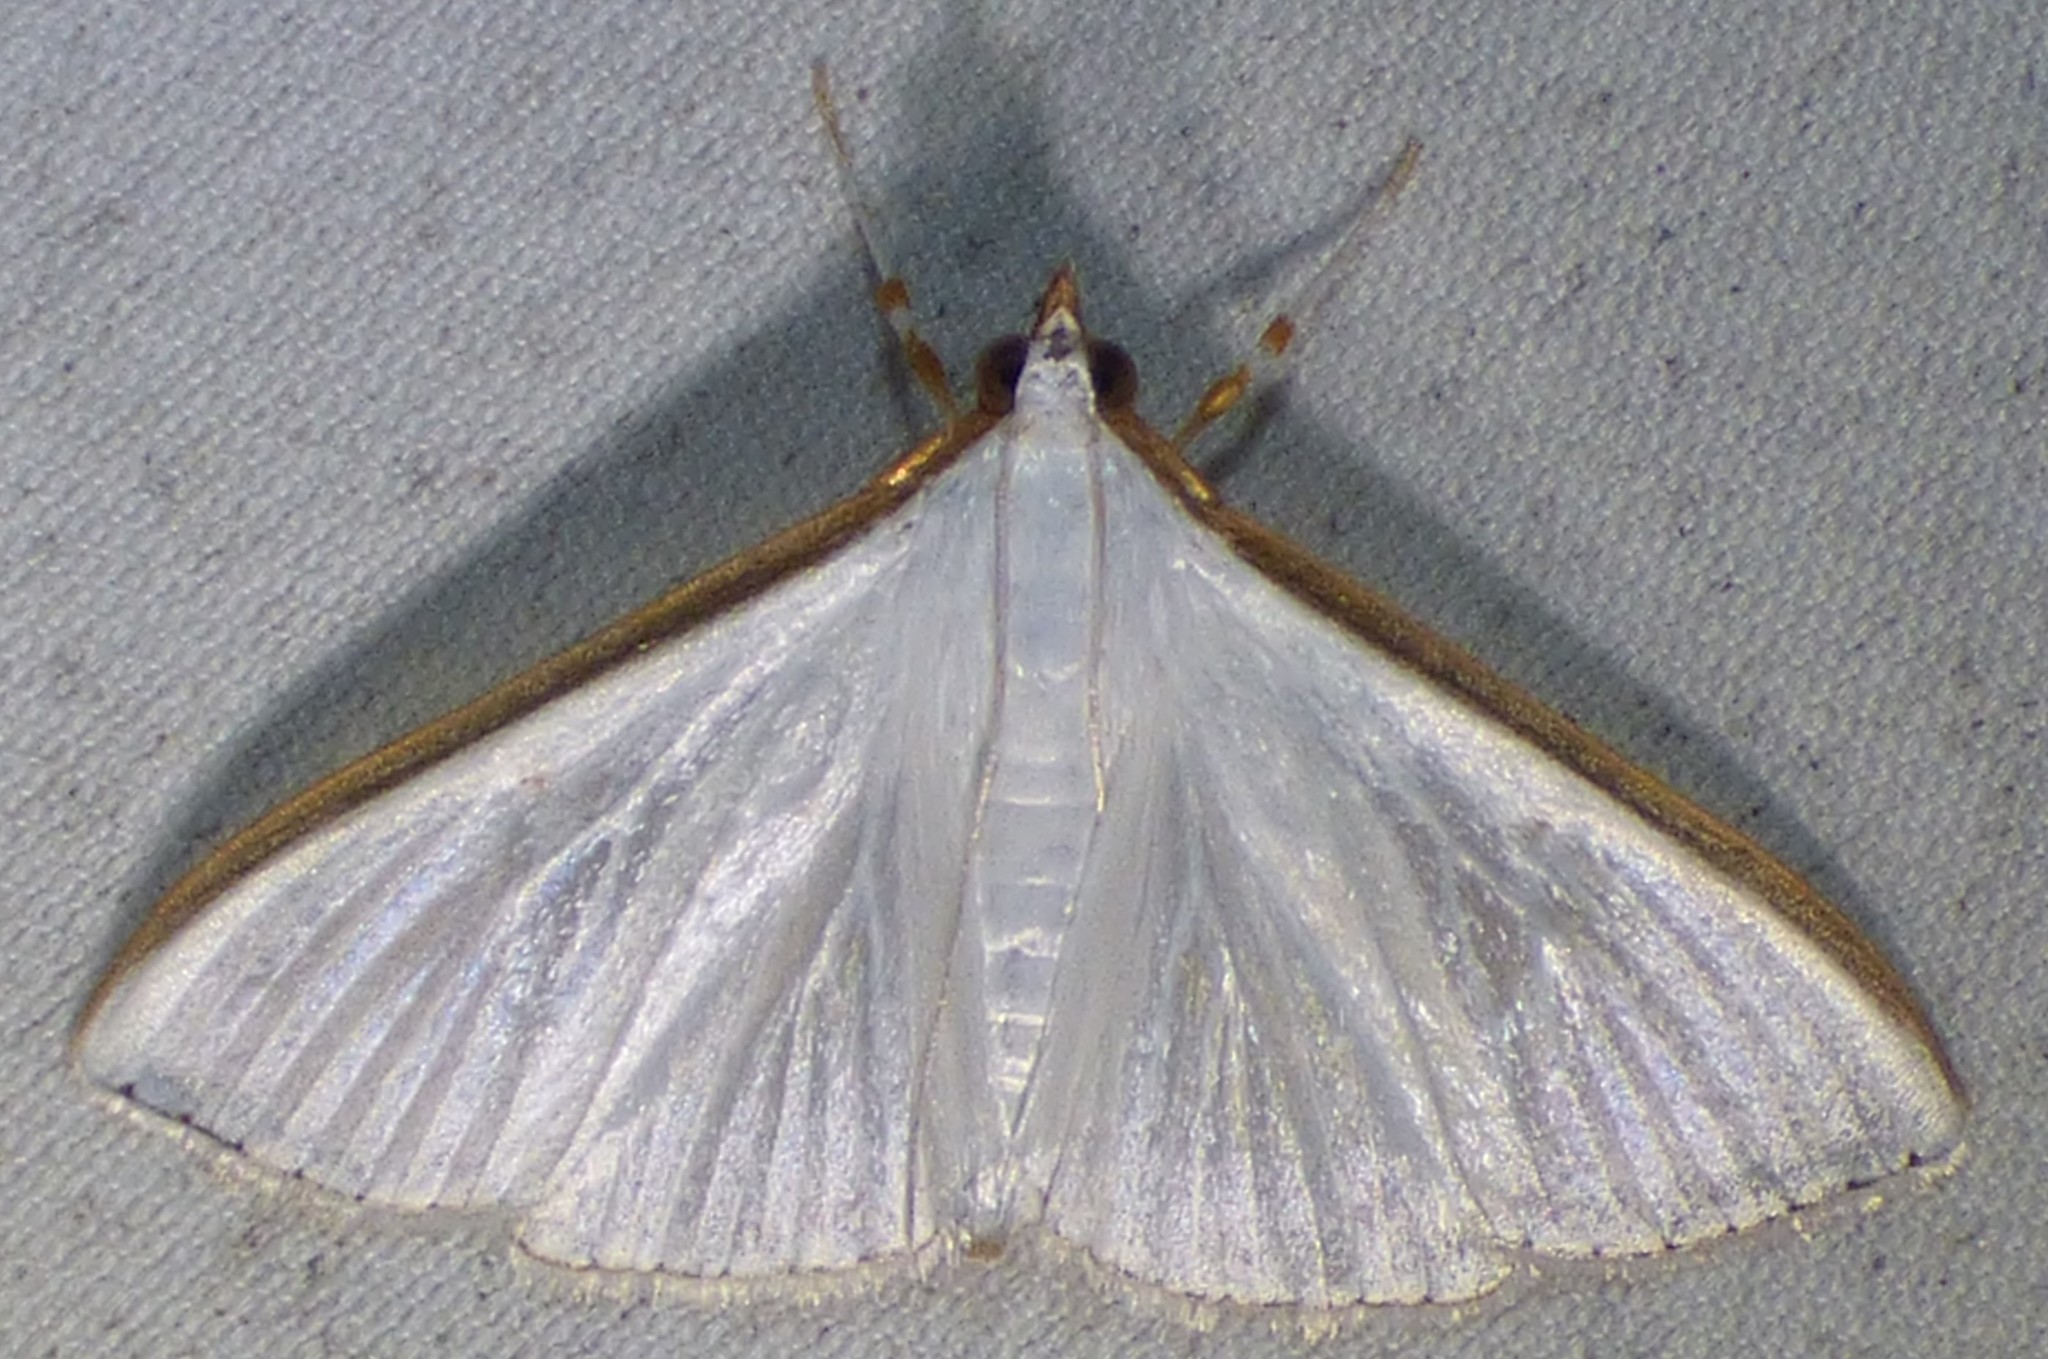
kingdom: Animalia
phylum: Arthropoda
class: Insecta
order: Lepidoptera
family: Crambidae
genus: Diaphania
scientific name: Diaphania costata
